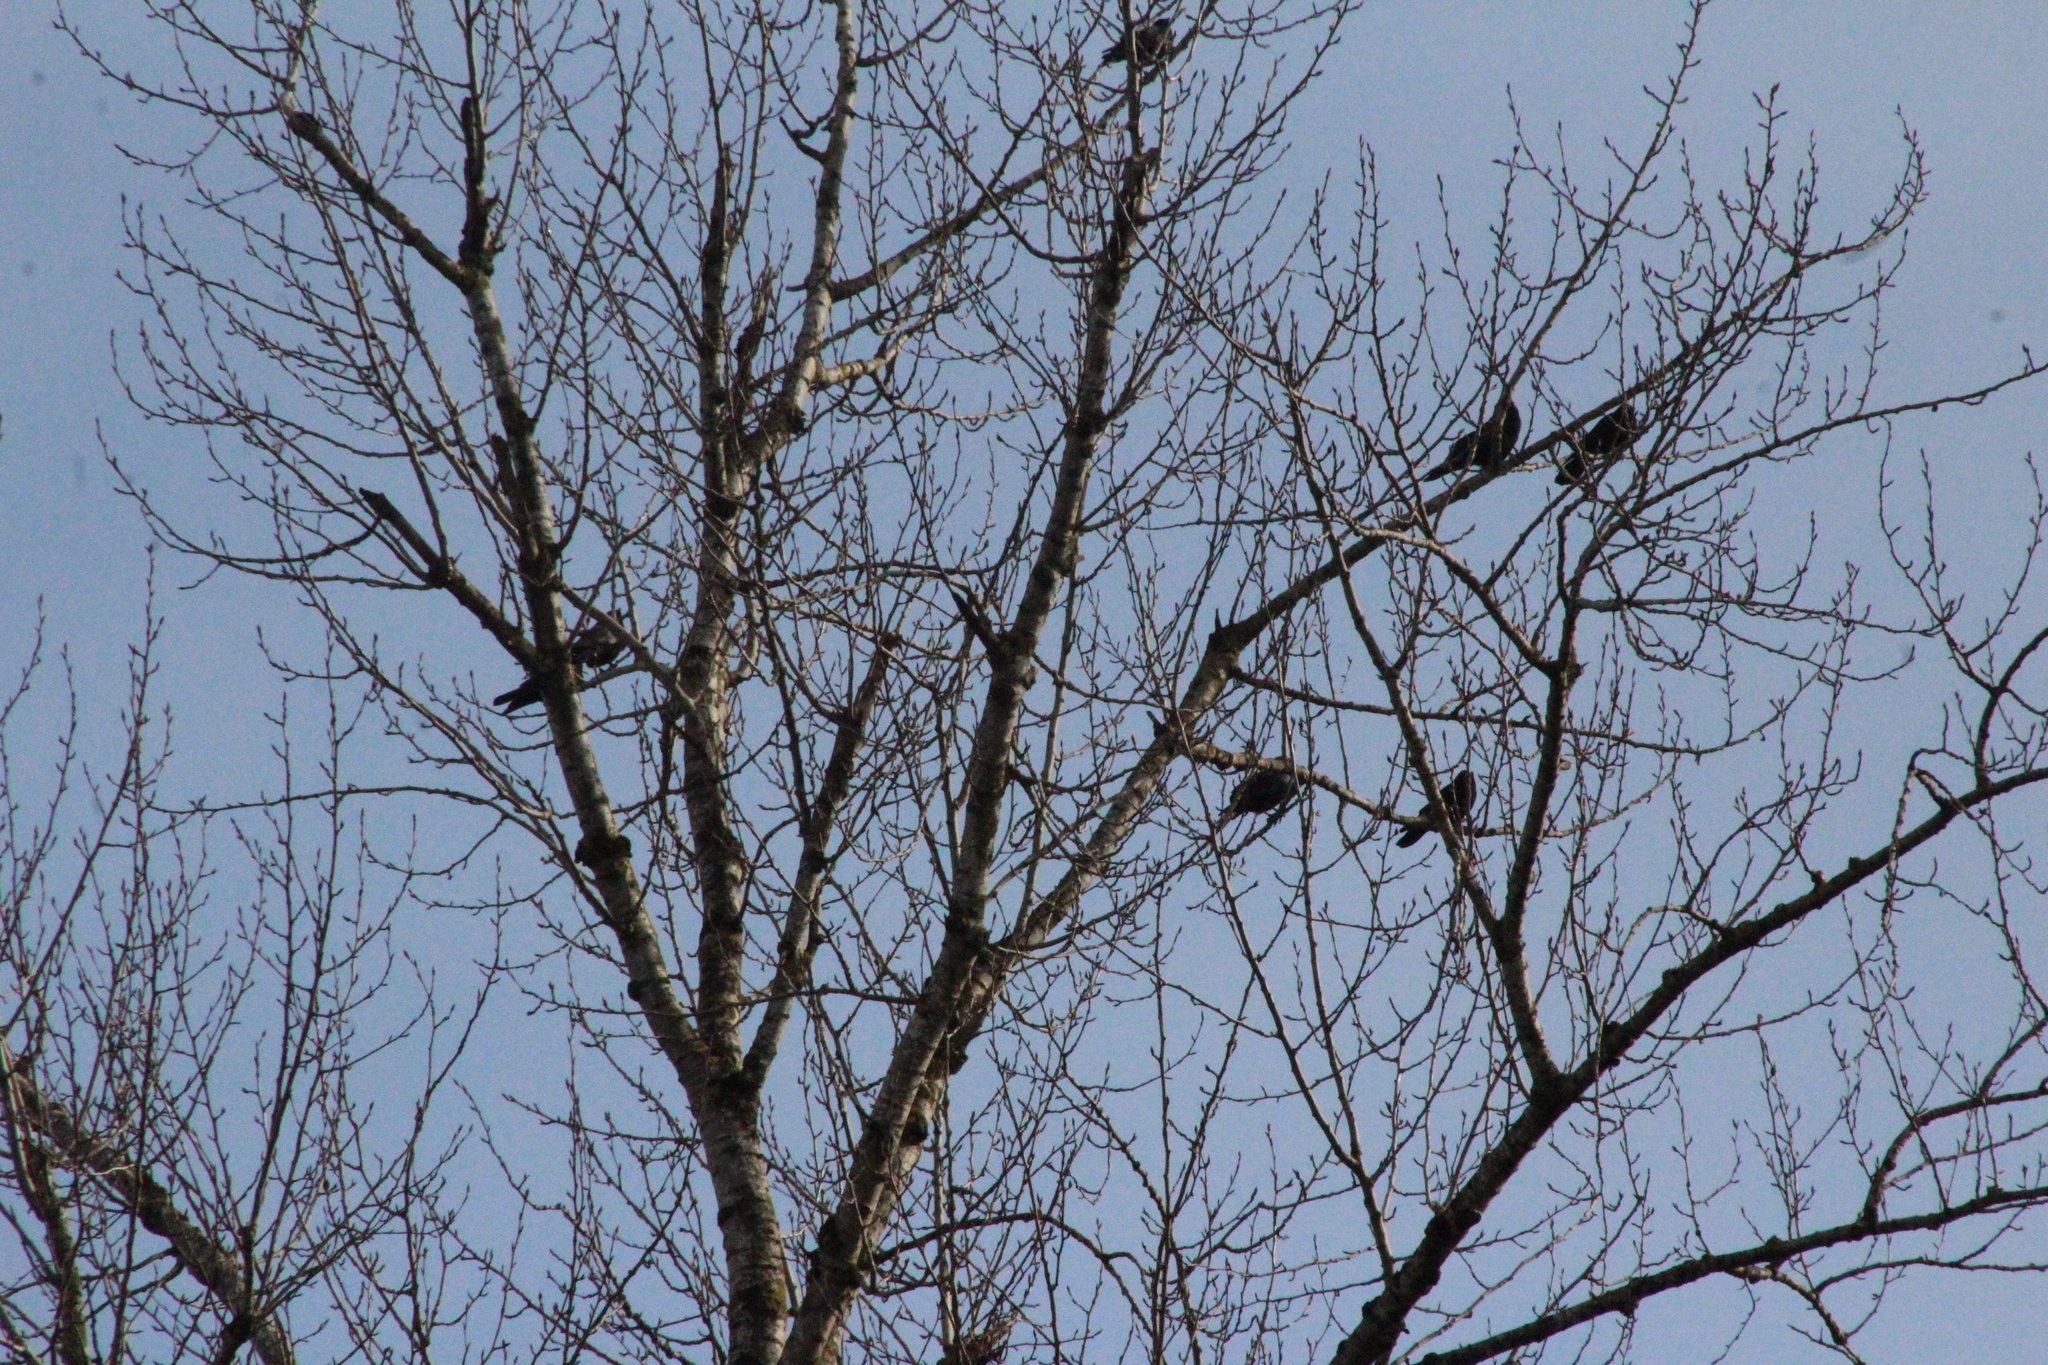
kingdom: Animalia
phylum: Chordata
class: Aves
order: Passeriformes
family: Corvidae
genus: Corvus
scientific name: Corvus brachyrhynchos
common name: American crow
